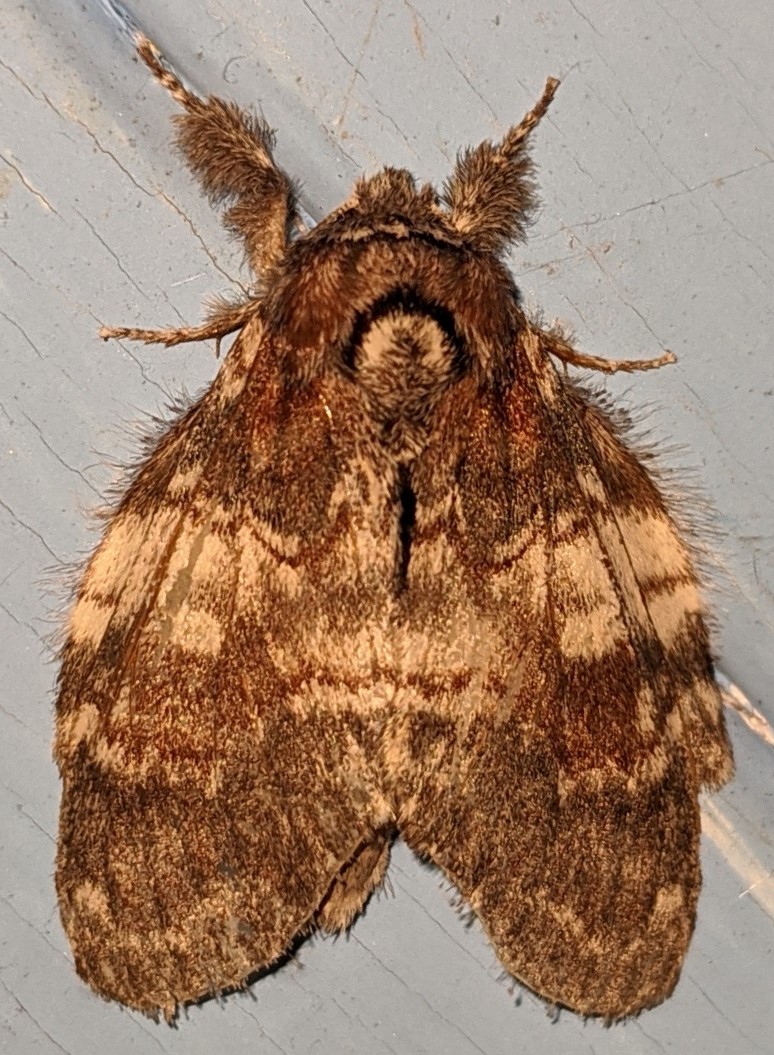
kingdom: Animalia
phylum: Arthropoda
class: Insecta
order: Lepidoptera
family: Notodontidae
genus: Peridea
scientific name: Peridea ferruginea
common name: Chocolate prominent
